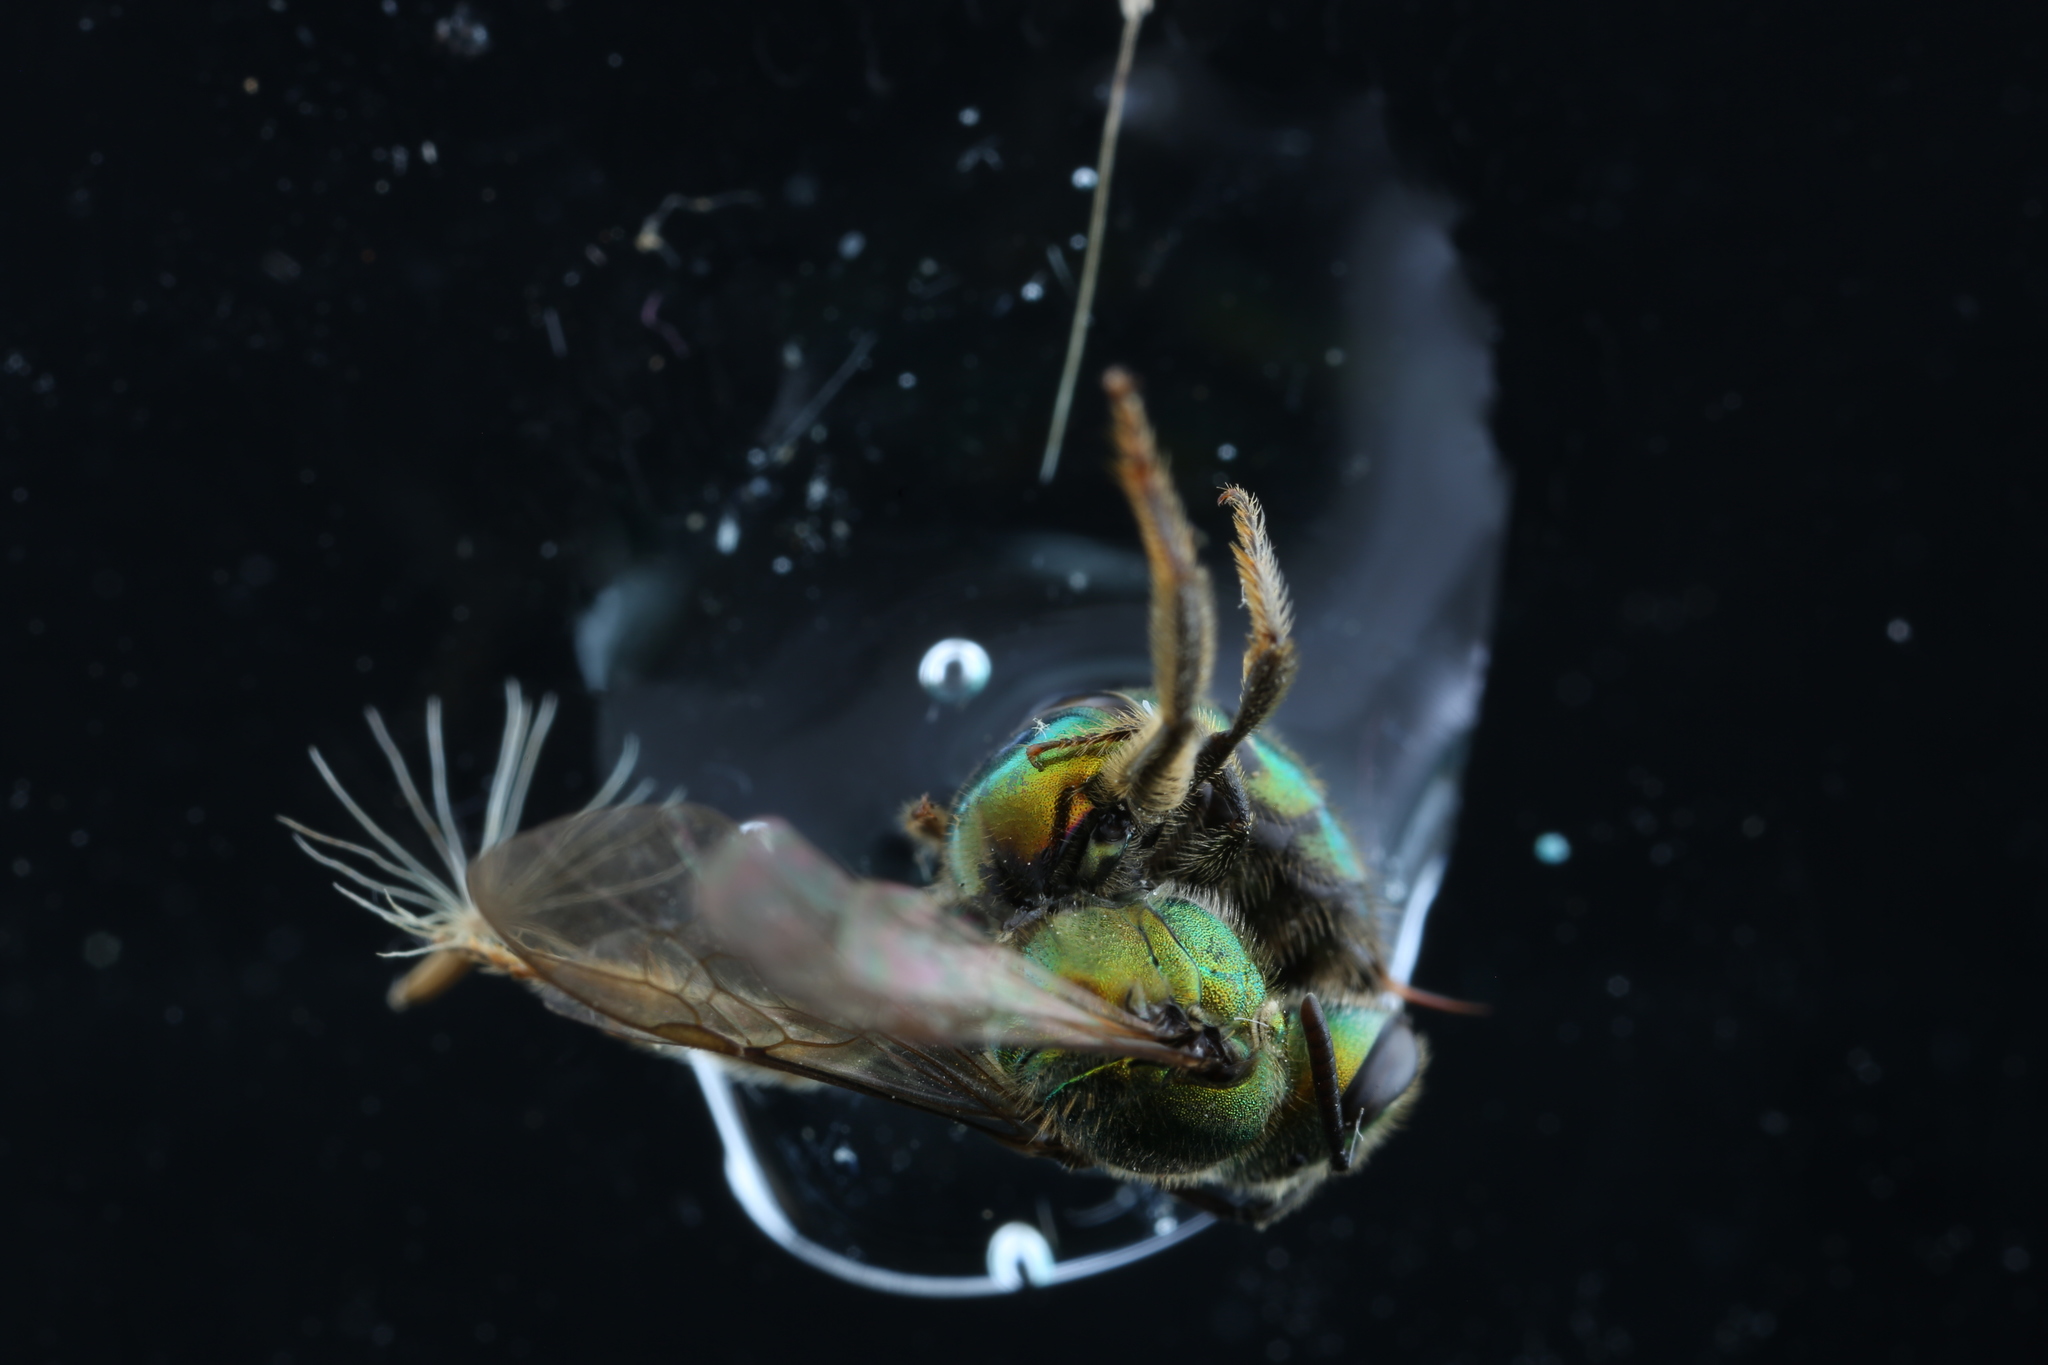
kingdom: Animalia
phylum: Arthropoda
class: Insecta
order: Hymenoptera
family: Halictidae
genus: Augochlora
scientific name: Augochlora pura
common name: Pure green sweat bee
